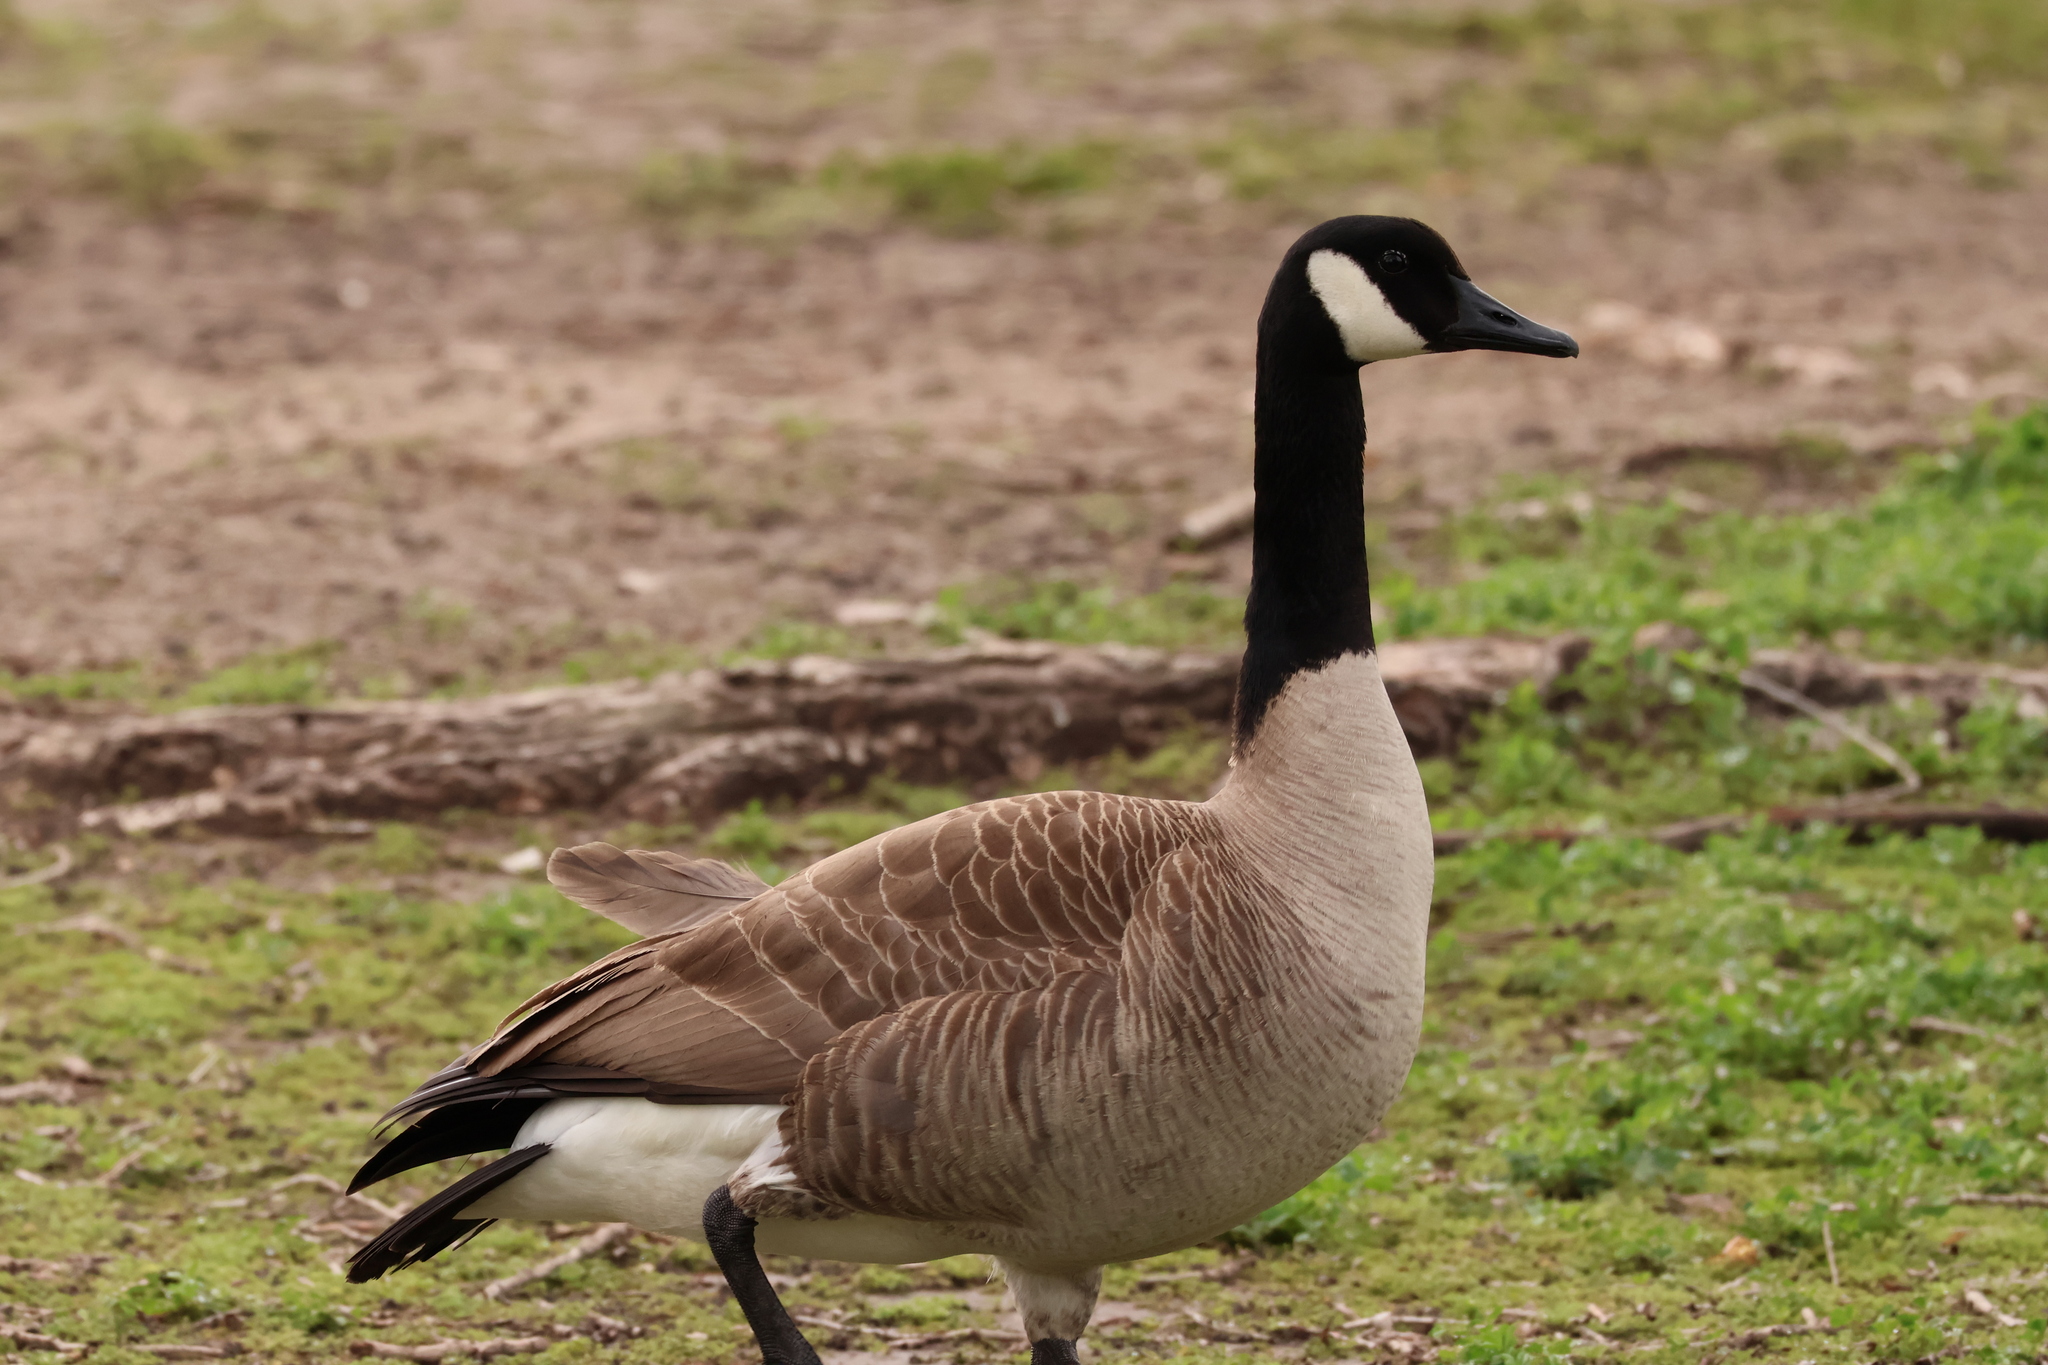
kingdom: Animalia
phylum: Chordata
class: Aves
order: Anseriformes
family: Anatidae
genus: Branta
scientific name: Branta canadensis
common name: Canada goose
